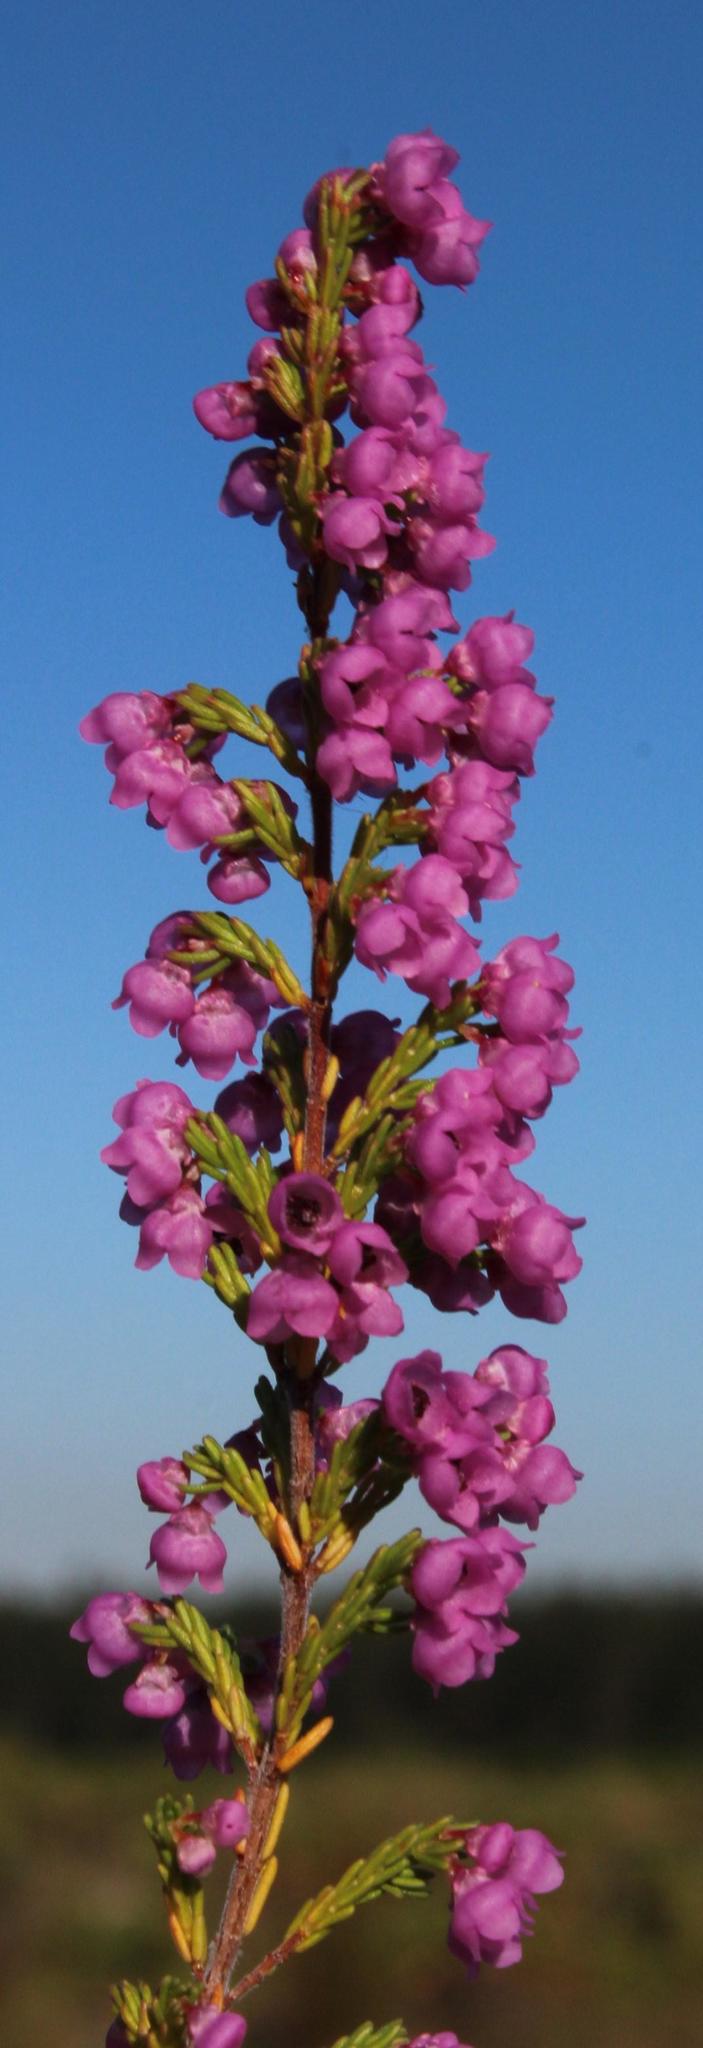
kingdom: Plantae
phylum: Tracheophyta
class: Magnoliopsida
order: Ericales
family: Ericaceae
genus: Erica
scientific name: Erica mauritanica
